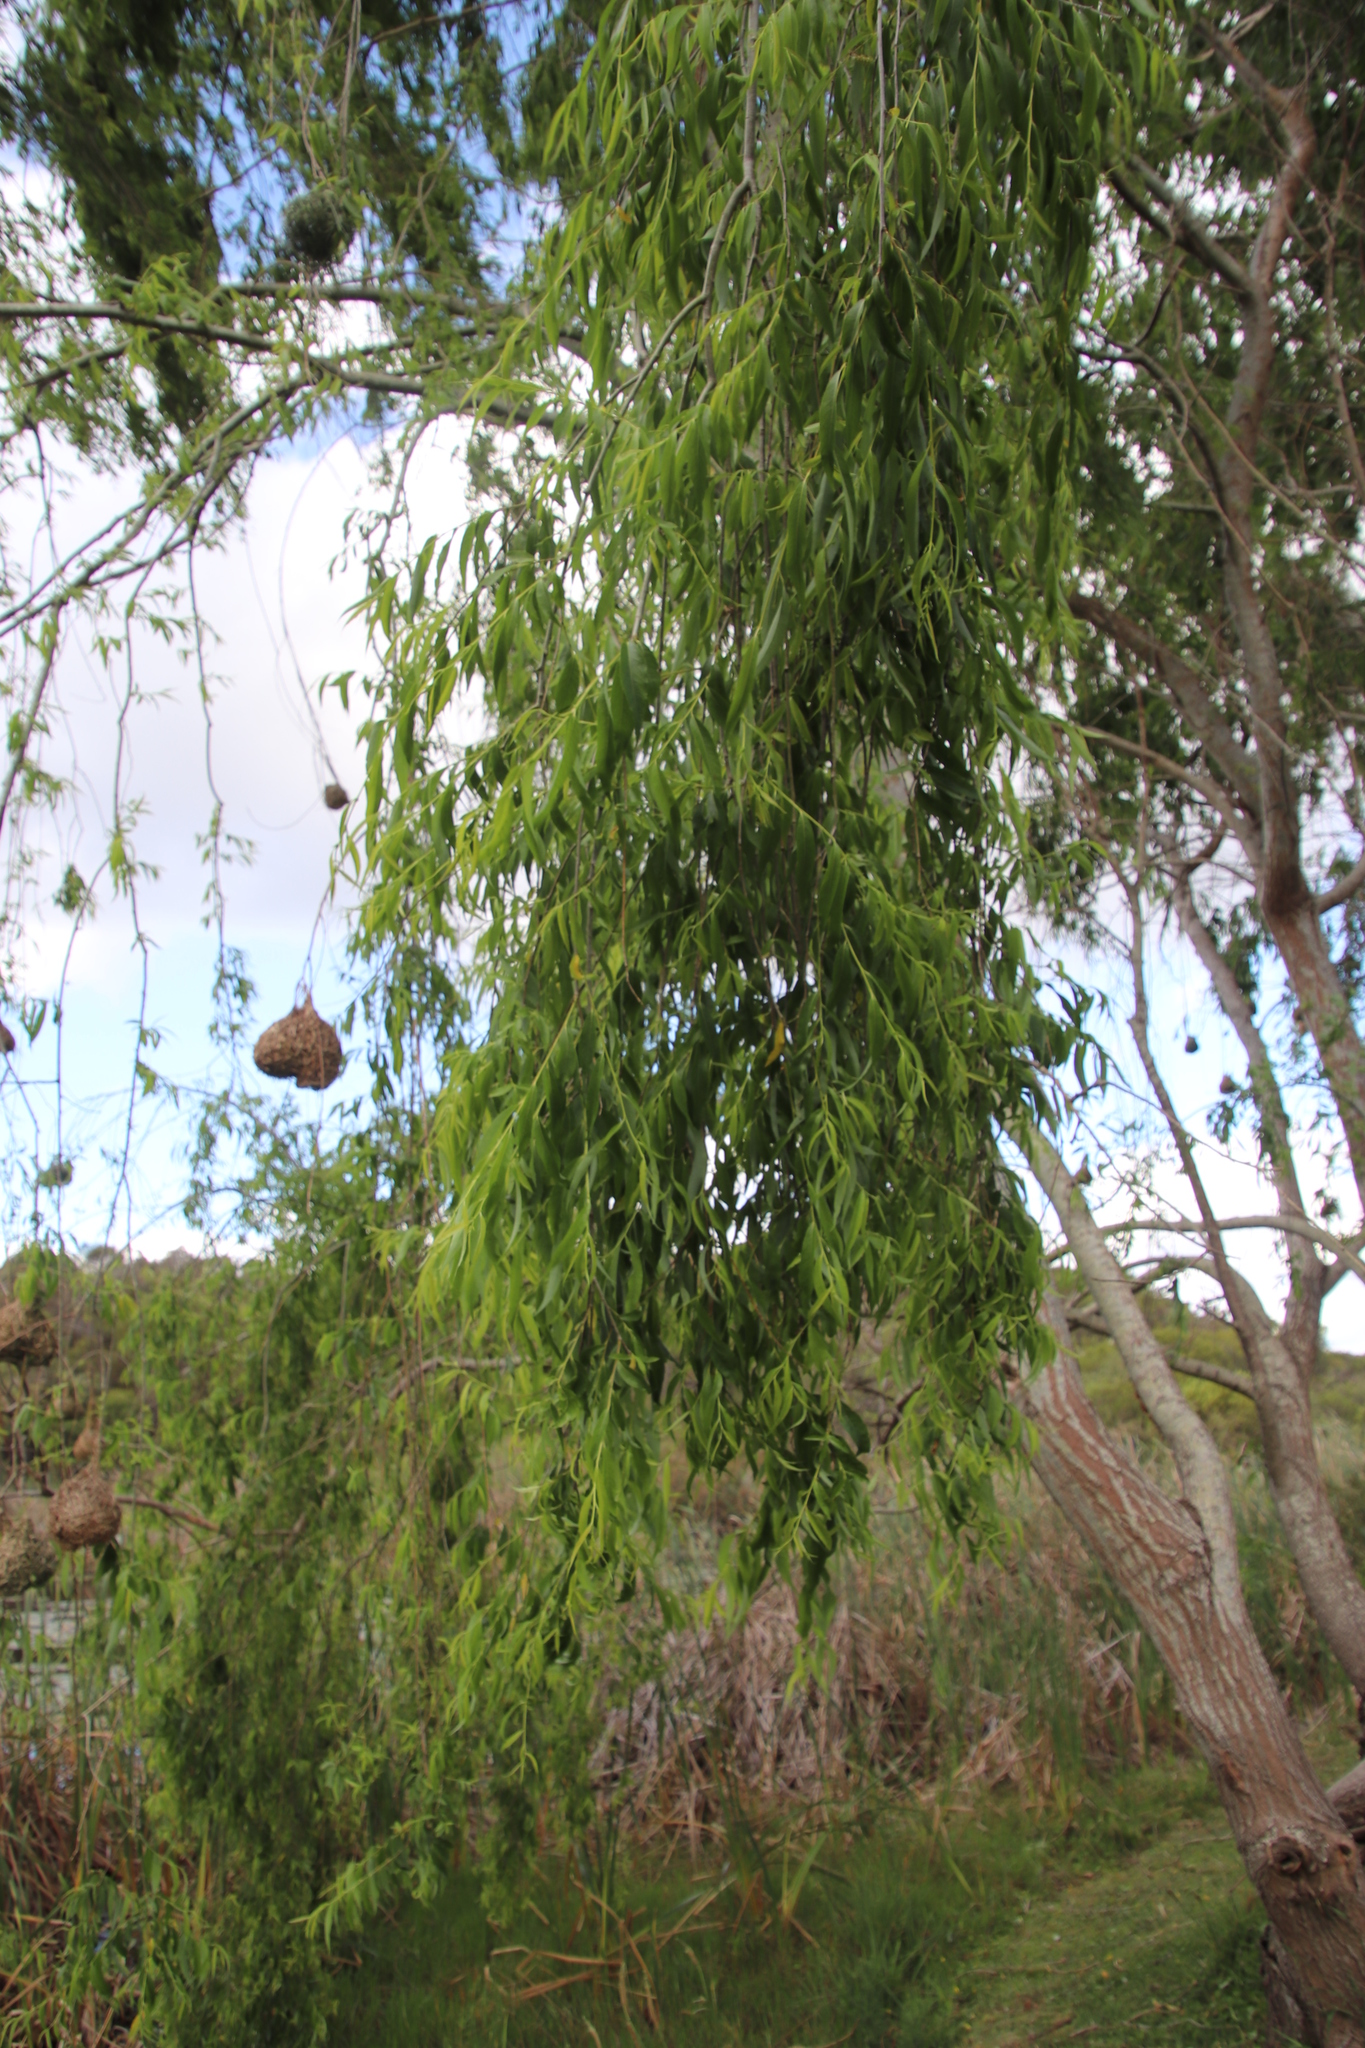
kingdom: Plantae
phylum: Tracheophyta
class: Magnoliopsida
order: Malpighiales
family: Salicaceae
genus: Salix
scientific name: Salix babylonica
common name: Weeping willow
